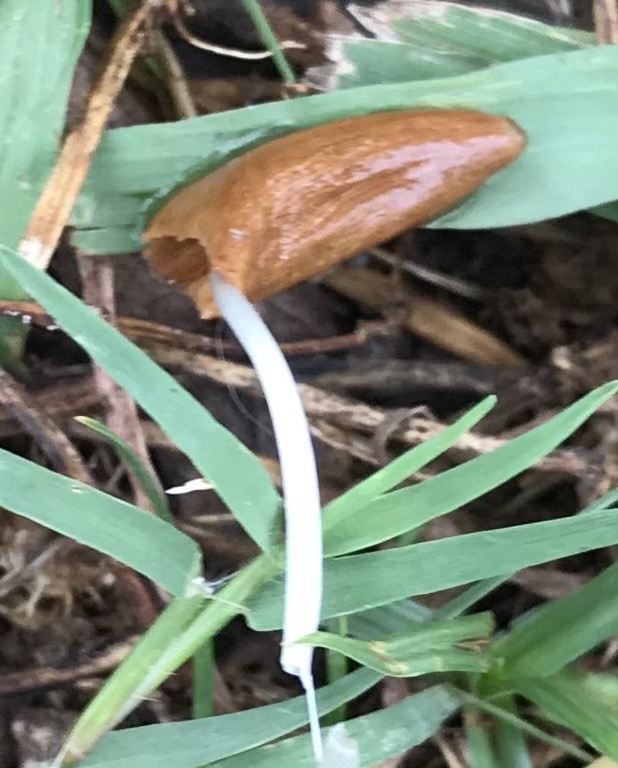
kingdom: Fungi
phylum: Basidiomycota
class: Agaricomycetes
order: Agaricales
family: Bolbitiaceae
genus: Conocybe
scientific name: Conocybe deliquescens
